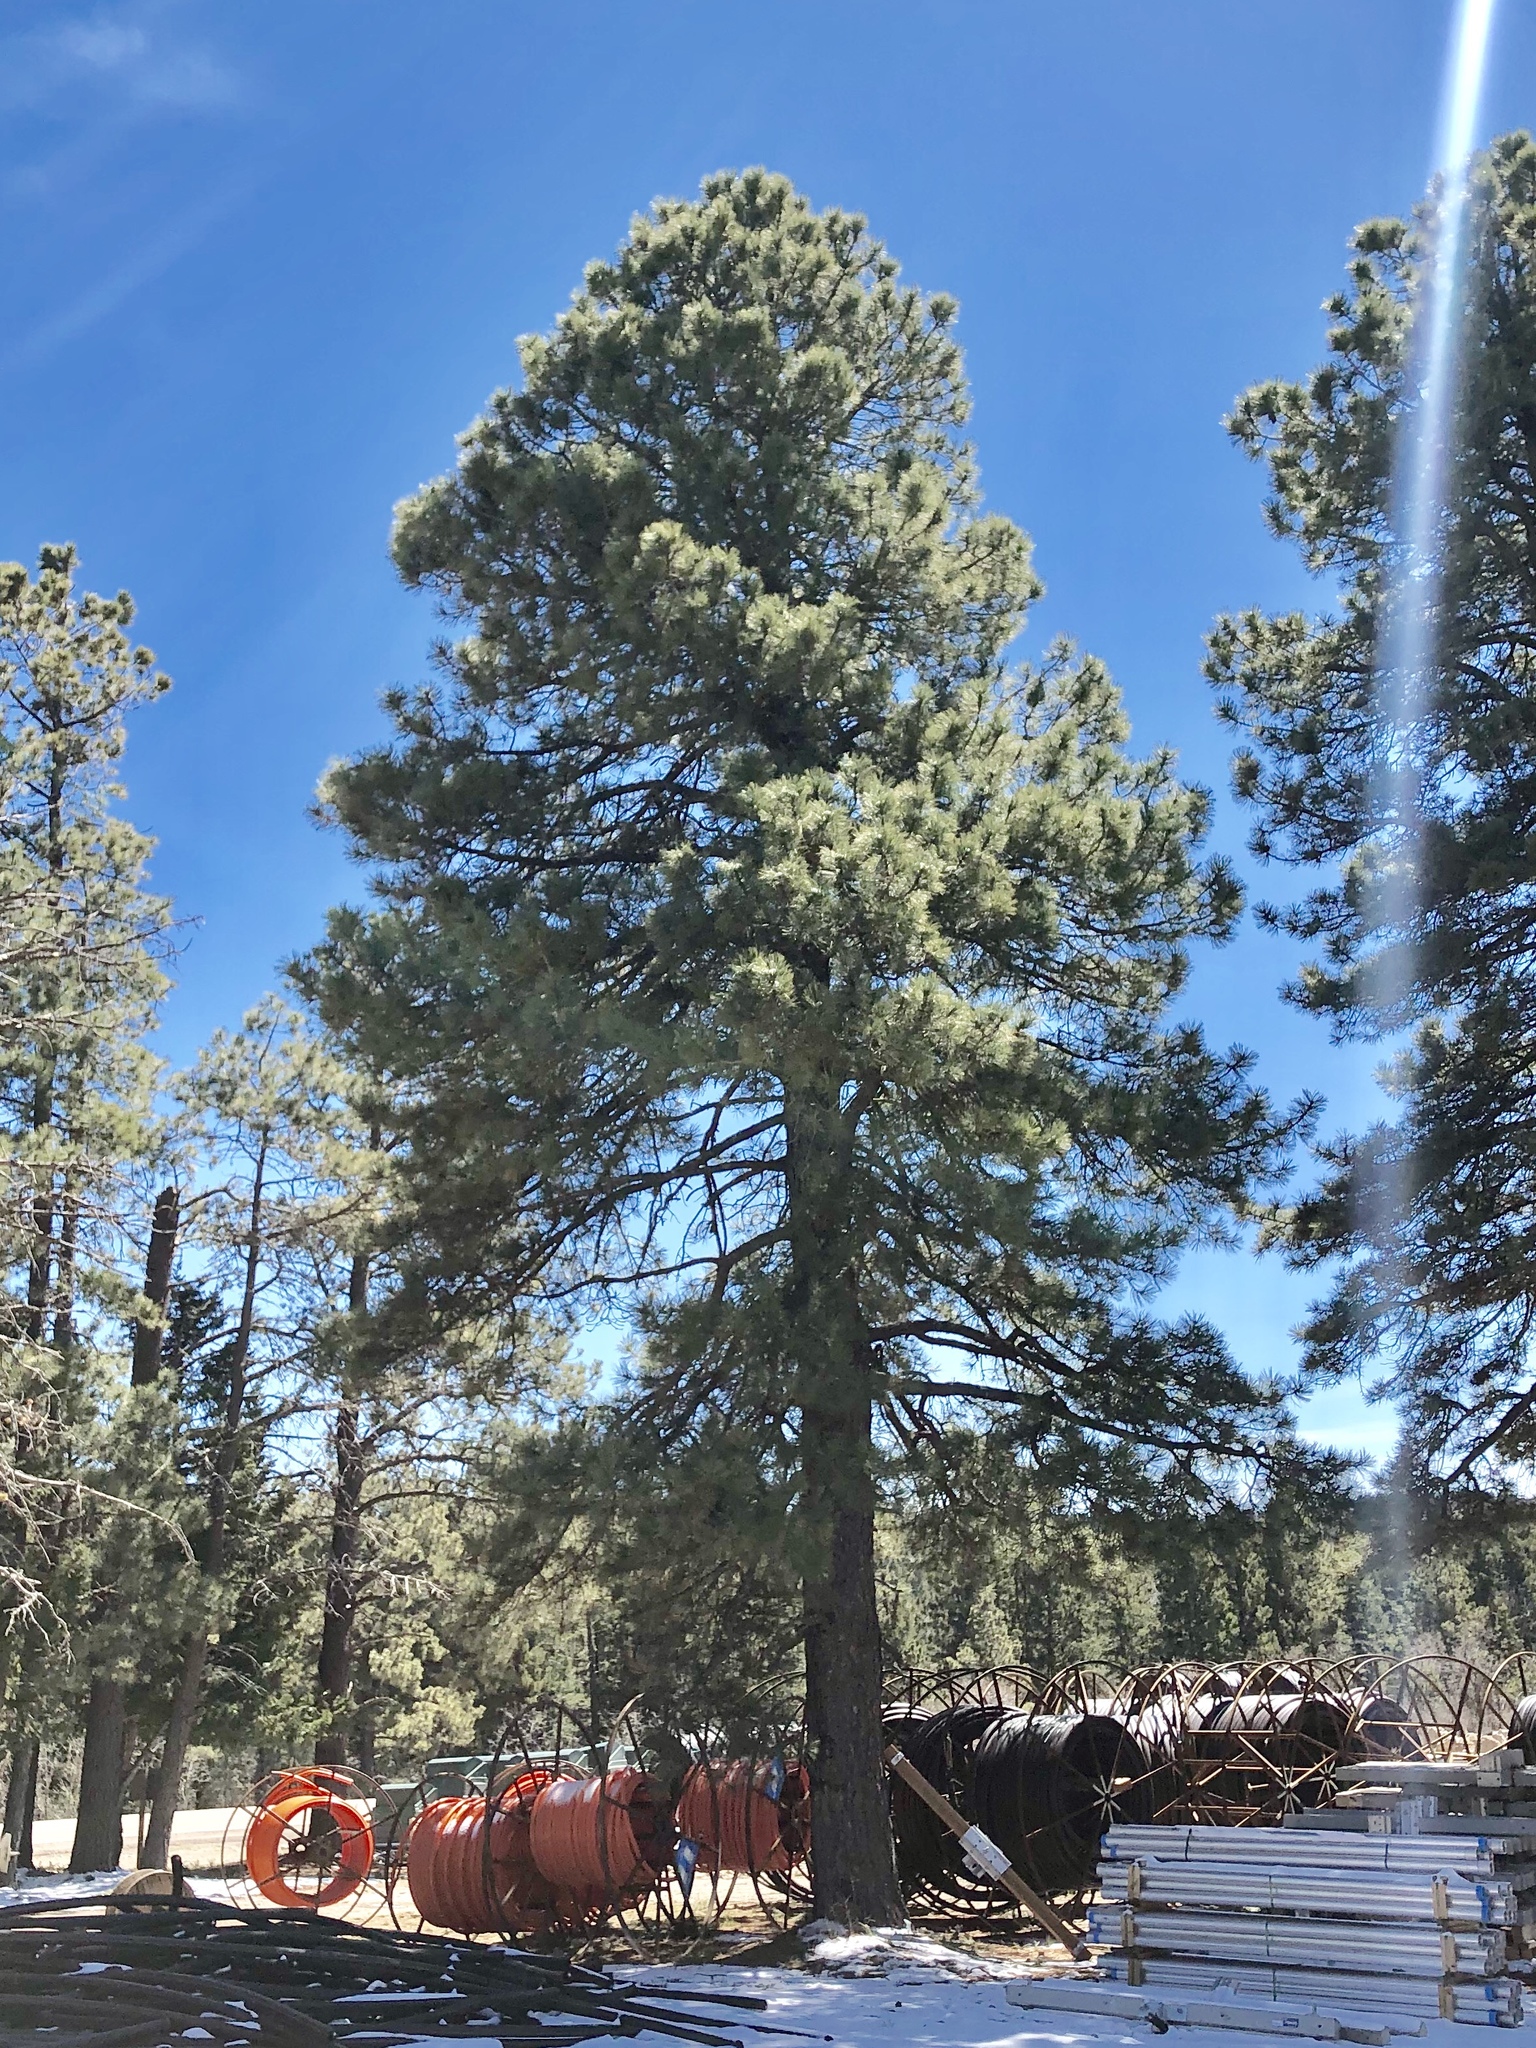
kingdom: Plantae
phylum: Tracheophyta
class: Pinopsida
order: Pinales
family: Pinaceae
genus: Pinus
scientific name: Pinus ponderosa
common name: Western yellow-pine
